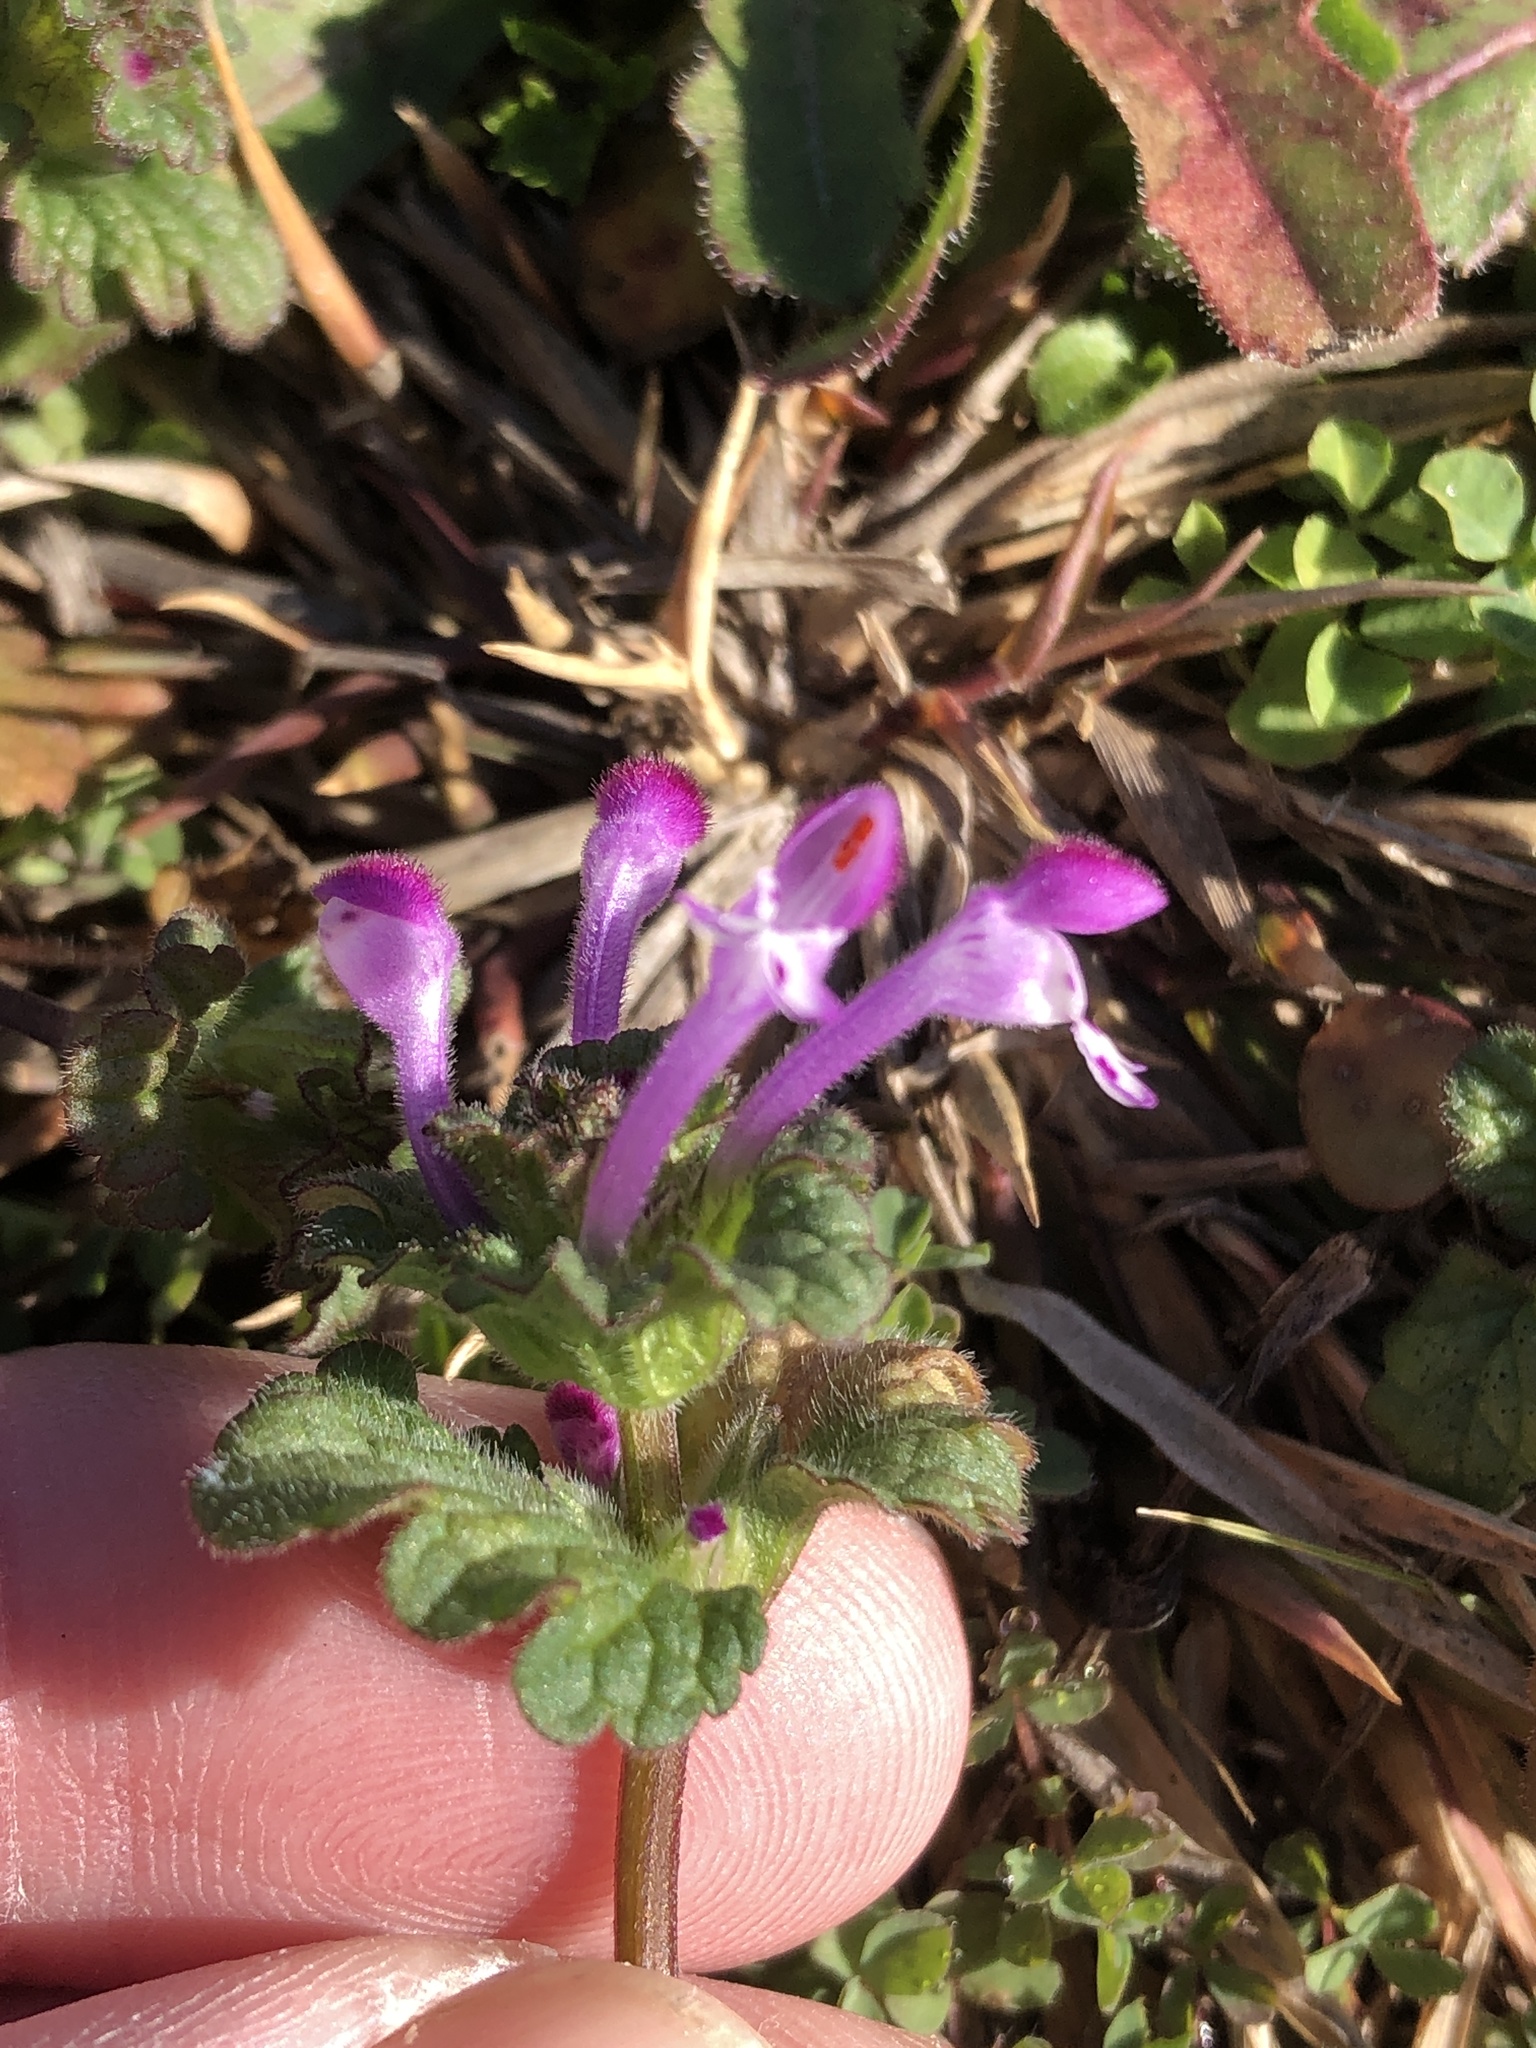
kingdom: Plantae
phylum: Tracheophyta
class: Magnoliopsida
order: Lamiales
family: Lamiaceae
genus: Lamium
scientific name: Lamium amplexicaule
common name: Henbit dead-nettle
